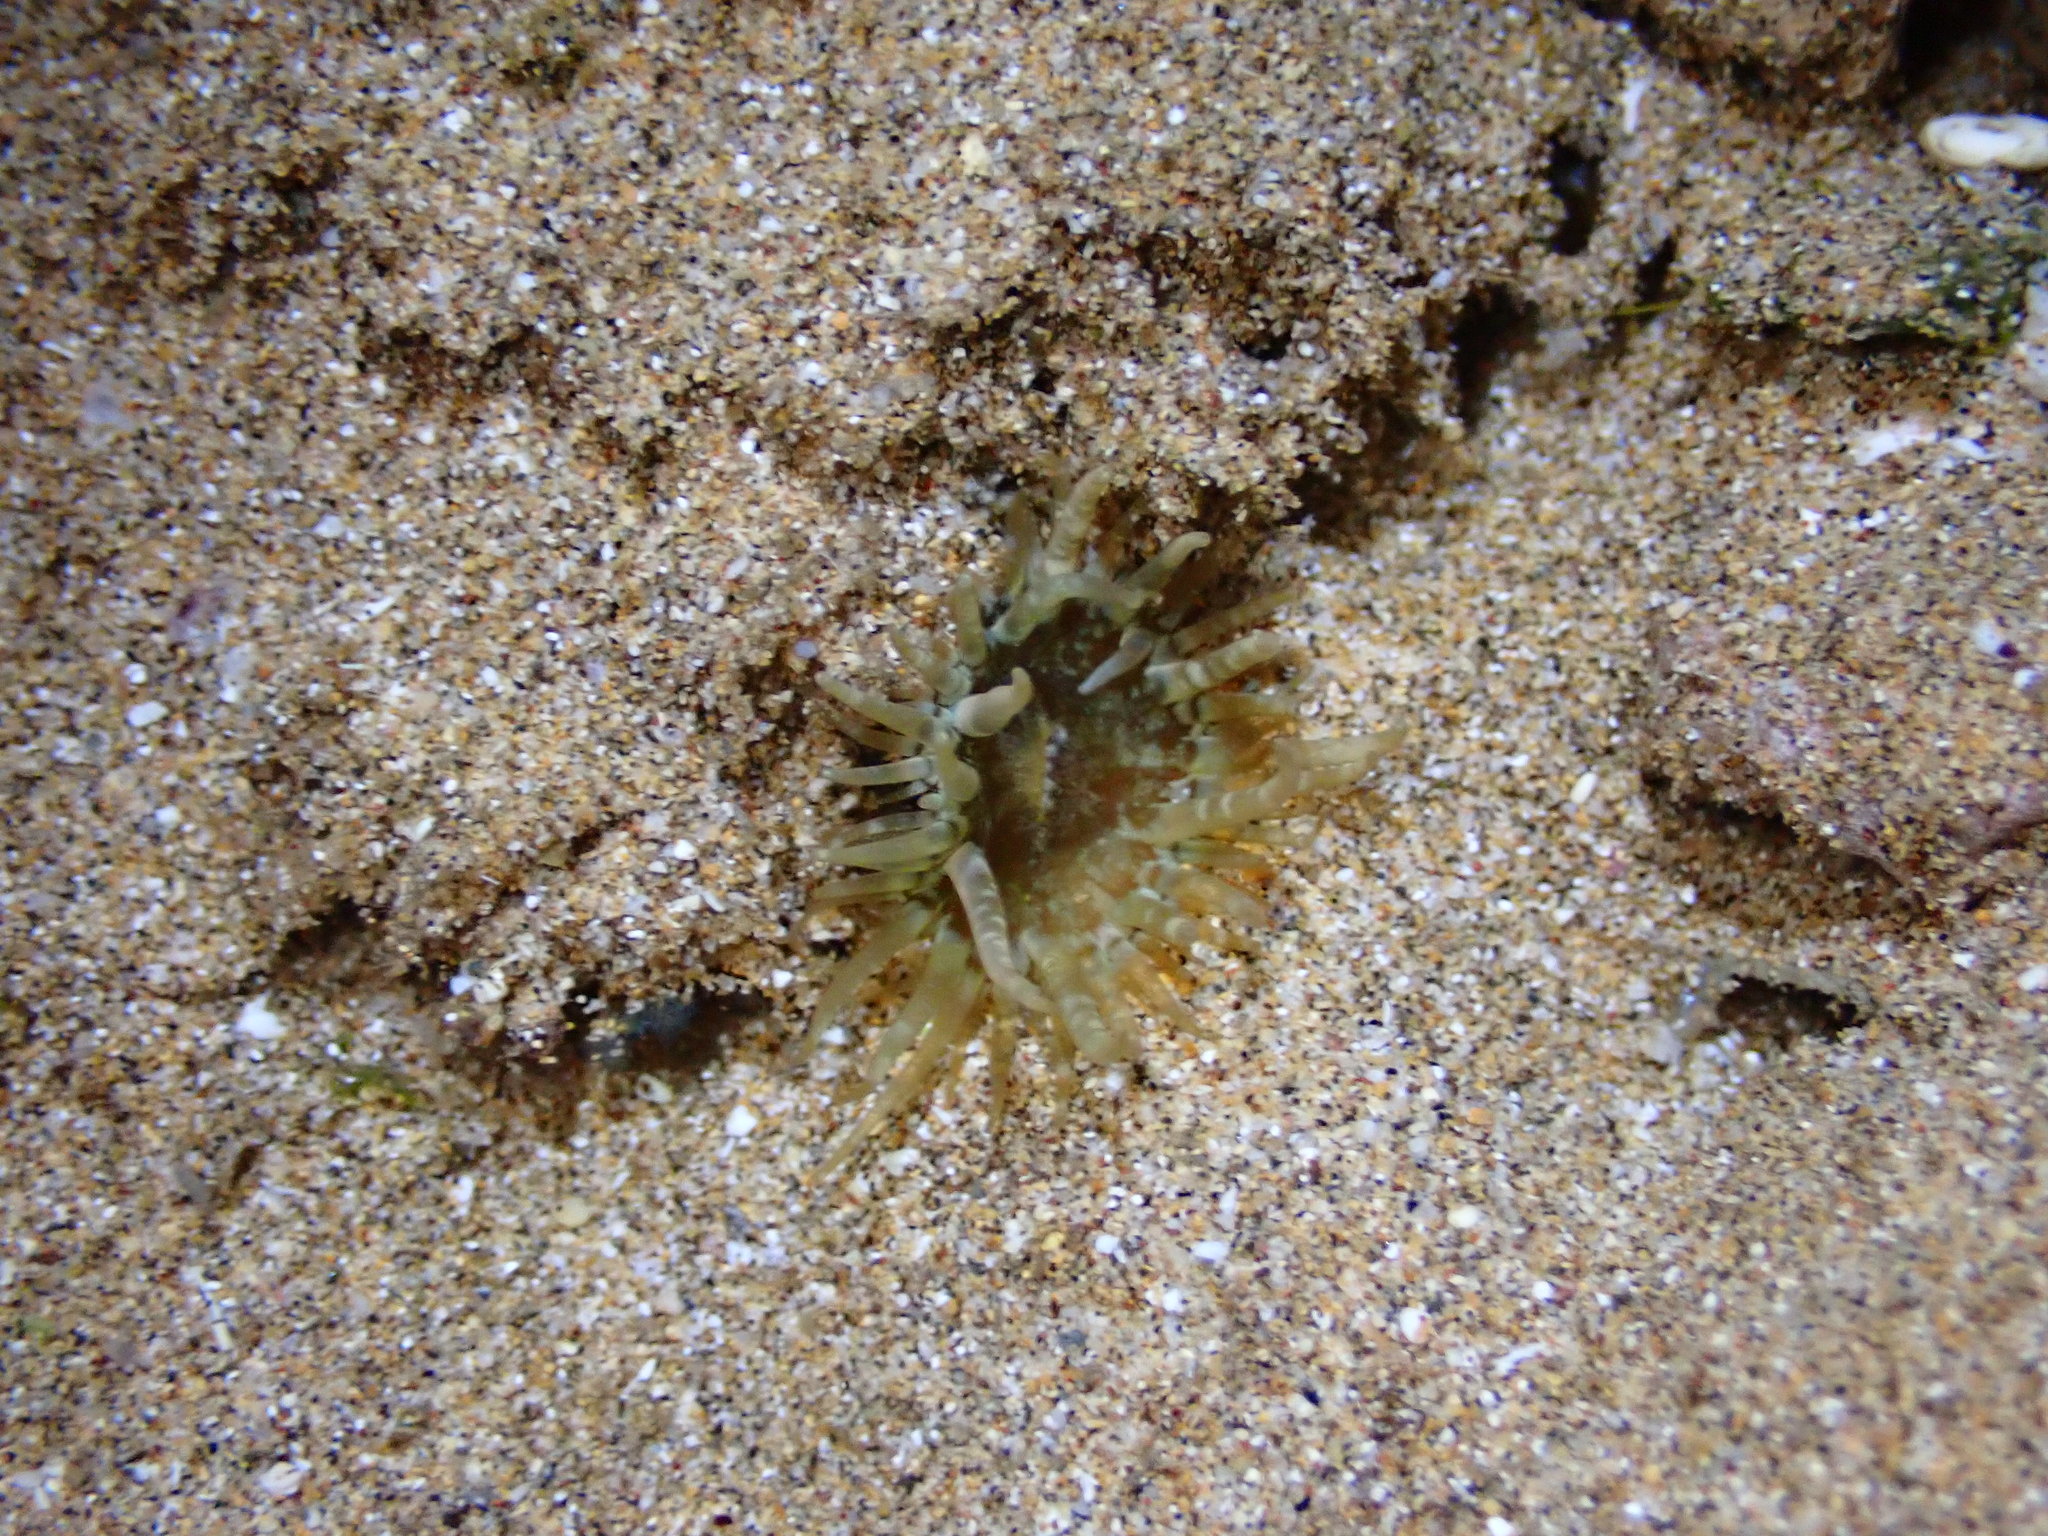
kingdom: Animalia
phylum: Cnidaria
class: Anthozoa
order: Actiniaria
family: Aiptasiidae
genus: Exaiptasia
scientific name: Exaiptasia diaphana
